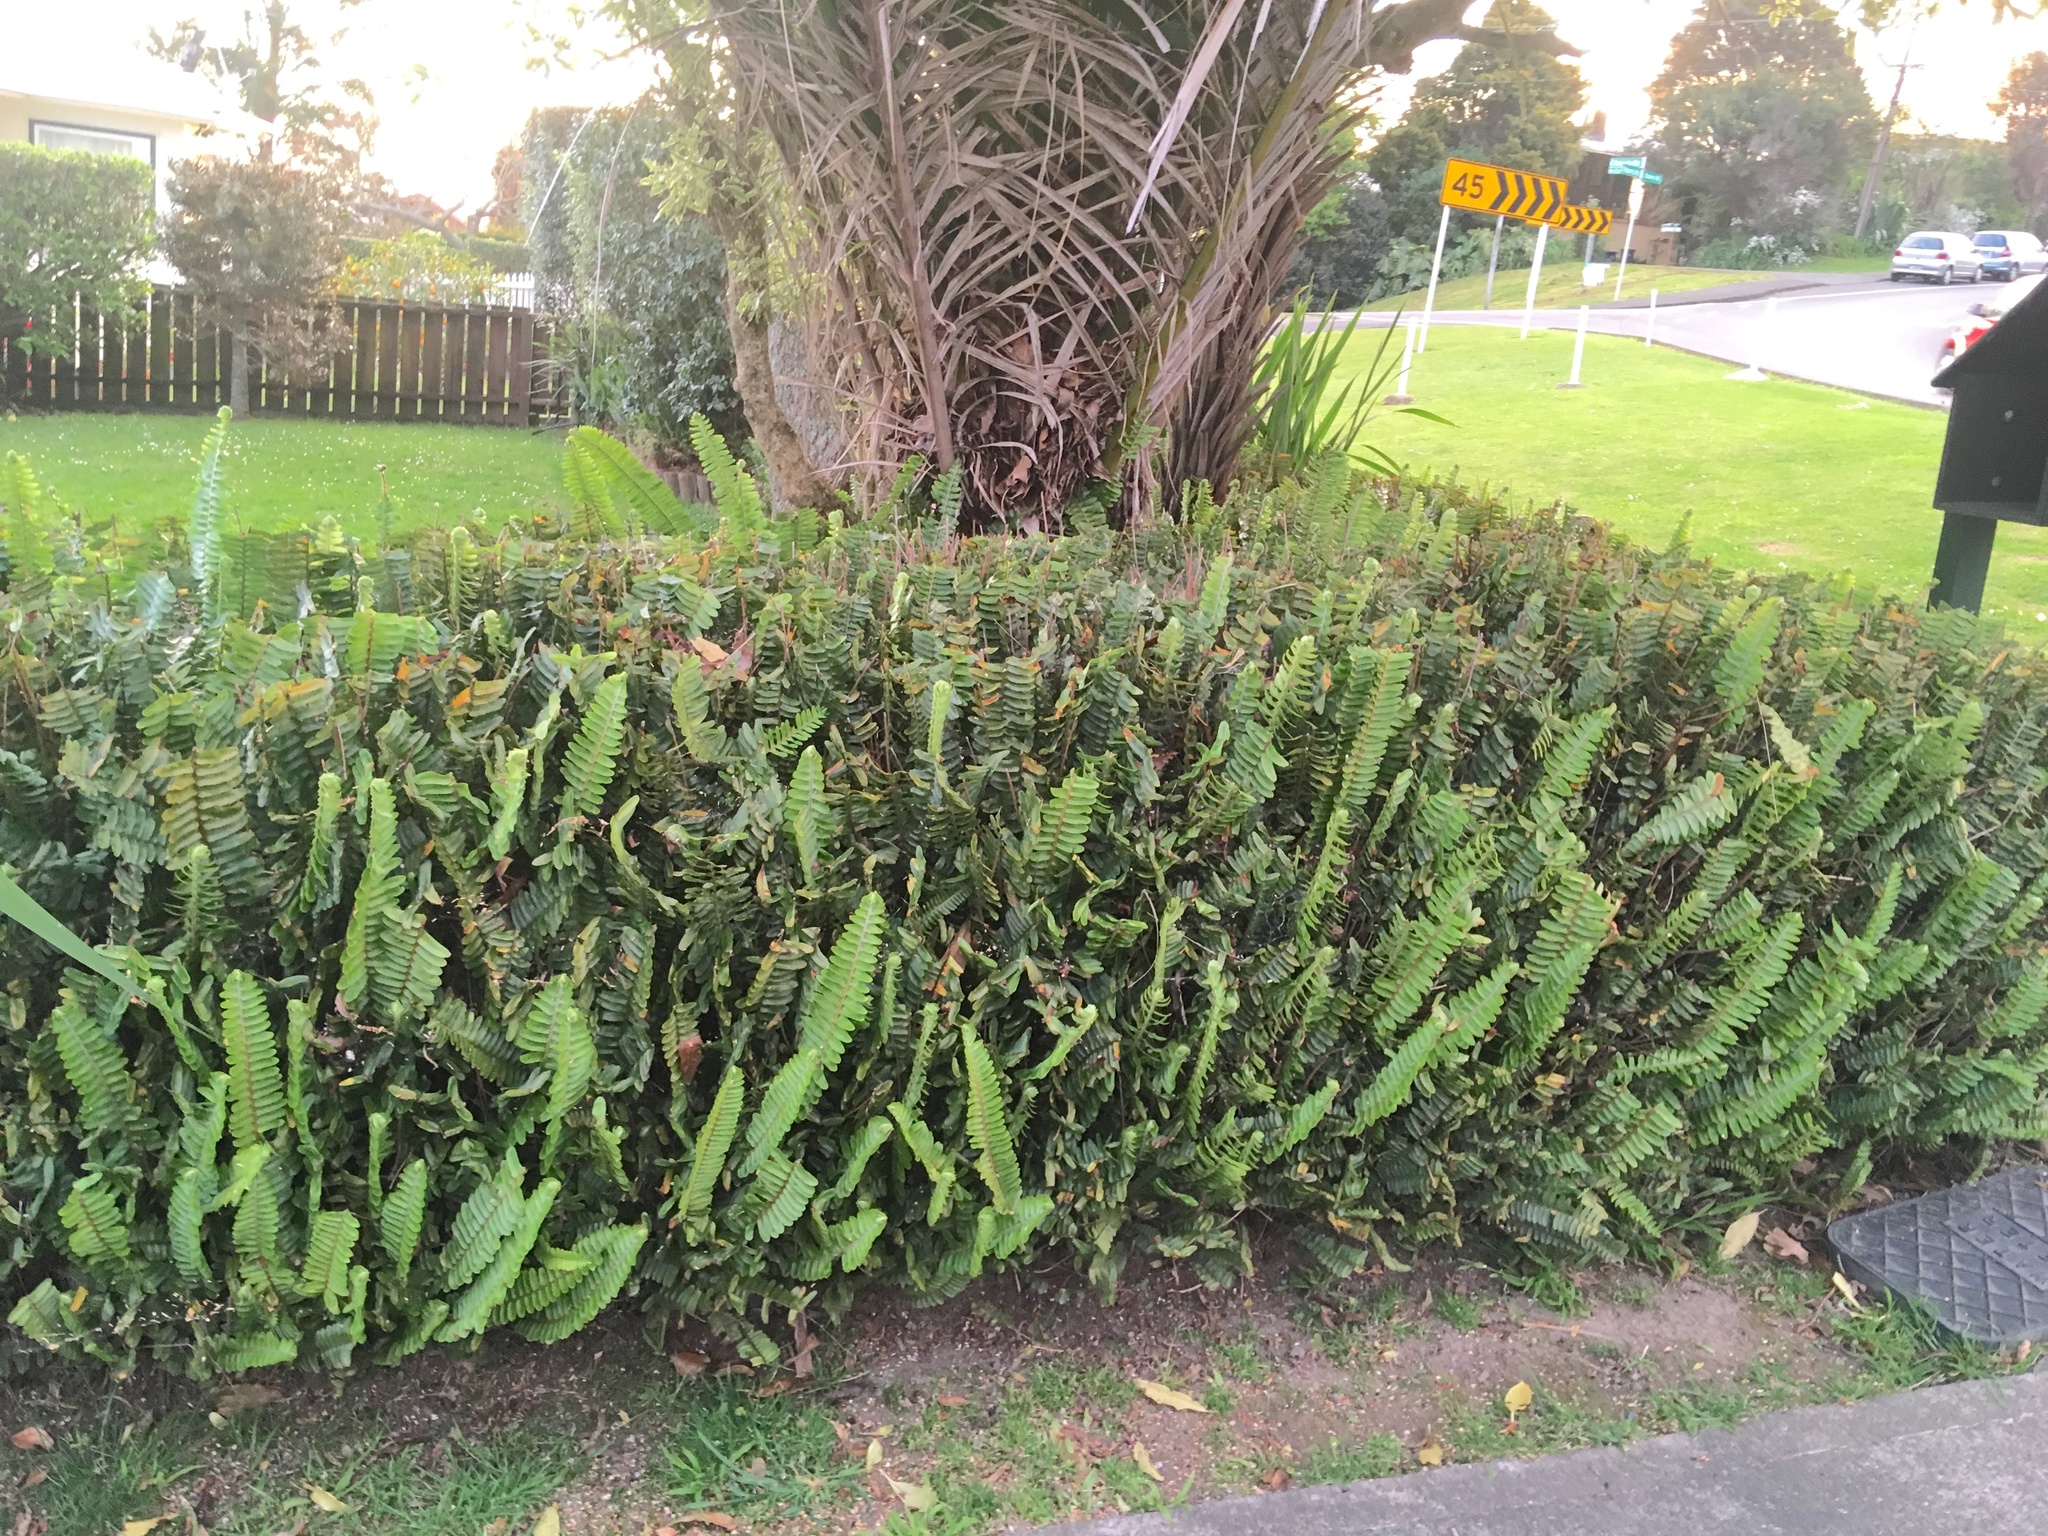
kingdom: Plantae
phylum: Tracheophyta
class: Polypodiopsida
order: Polypodiales
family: Nephrolepidaceae
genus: Nephrolepis
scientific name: Nephrolepis cordifolia
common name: Narrow swordfern
